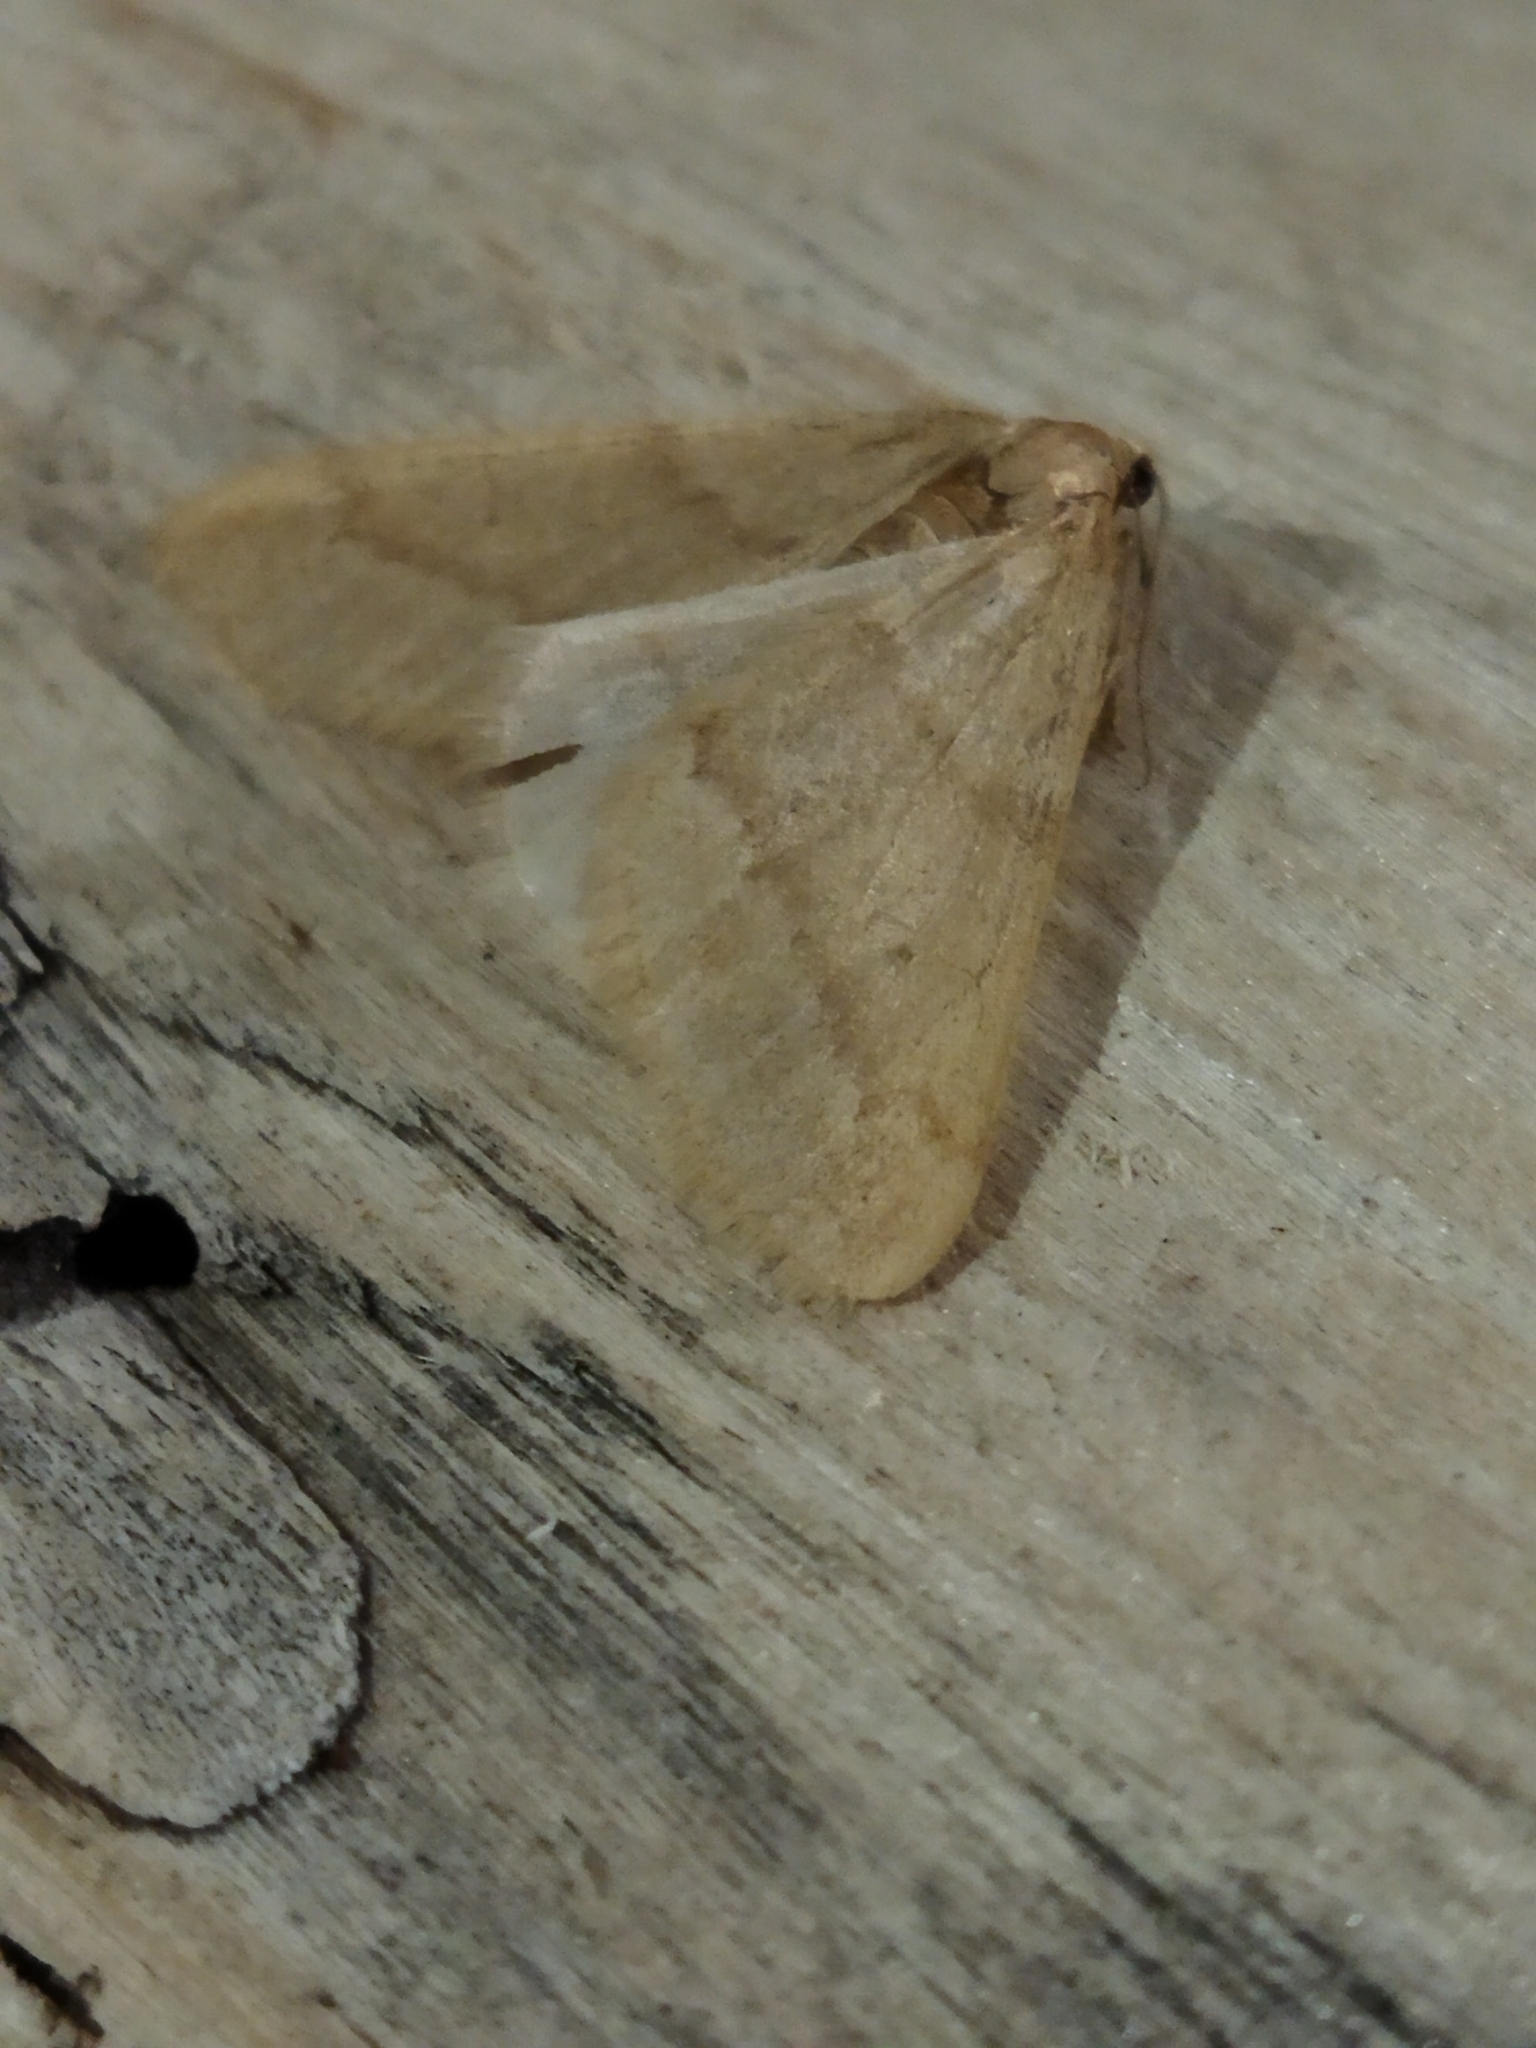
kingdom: Animalia
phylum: Arthropoda
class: Insecta
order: Lepidoptera
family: Geometridae
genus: Alsophila
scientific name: Alsophila aceraria
